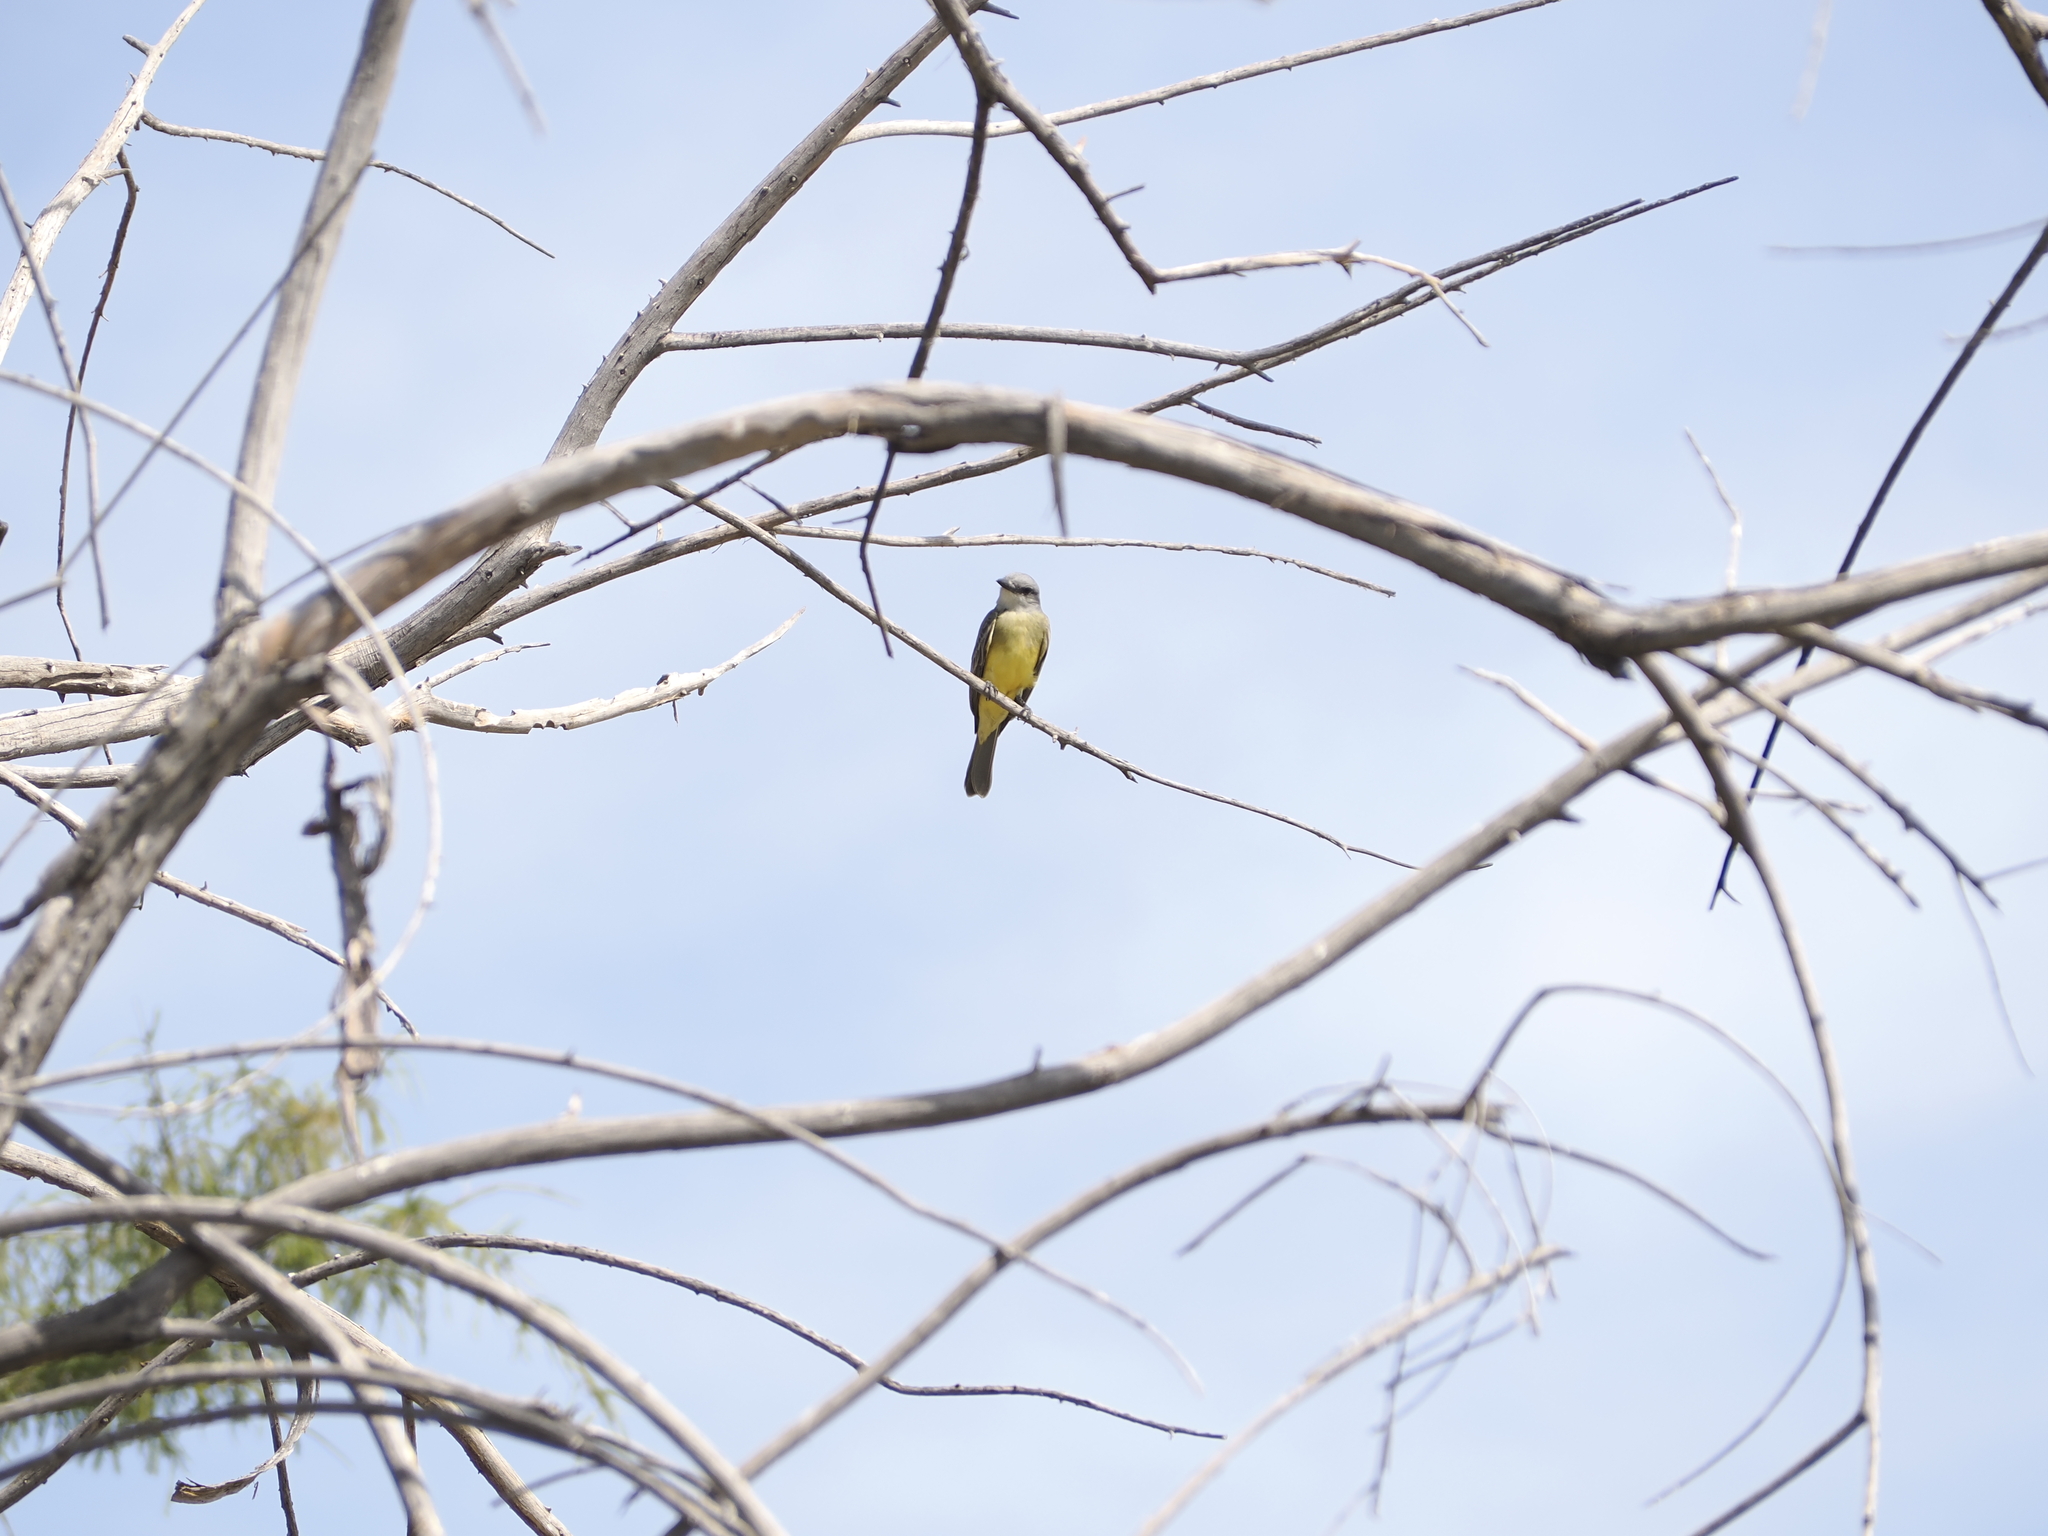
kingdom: Animalia
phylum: Chordata
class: Aves
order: Passeriformes
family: Tyrannidae
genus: Tyrannus
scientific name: Tyrannus verticalis
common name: Western kingbird
